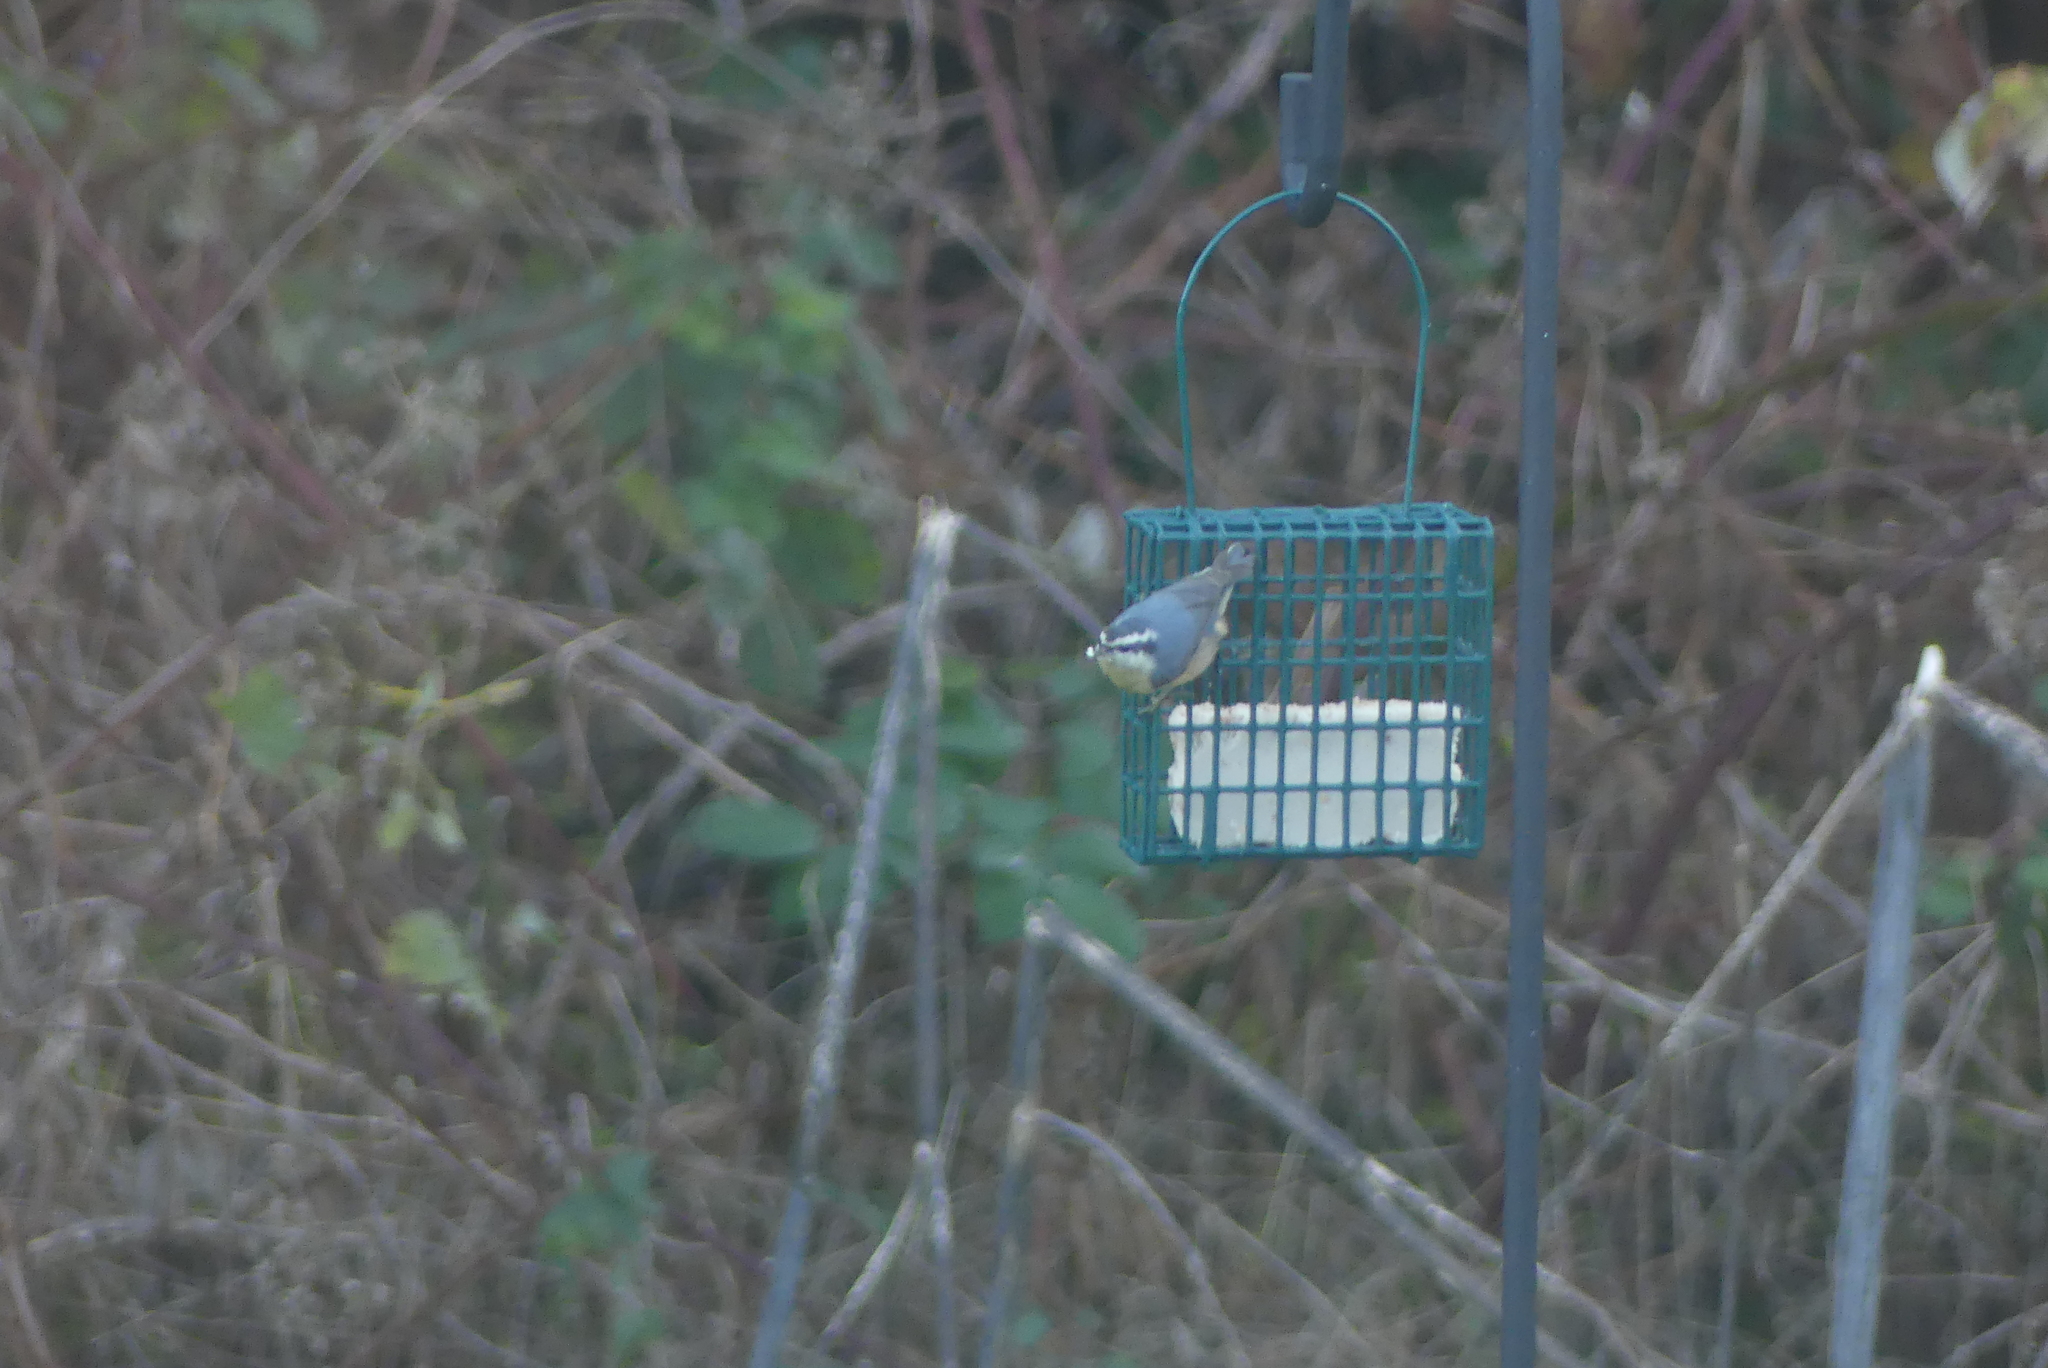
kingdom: Animalia
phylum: Chordata
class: Aves
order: Passeriformes
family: Sittidae
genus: Sitta
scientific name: Sitta canadensis
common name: Red-breasted nuthatch
